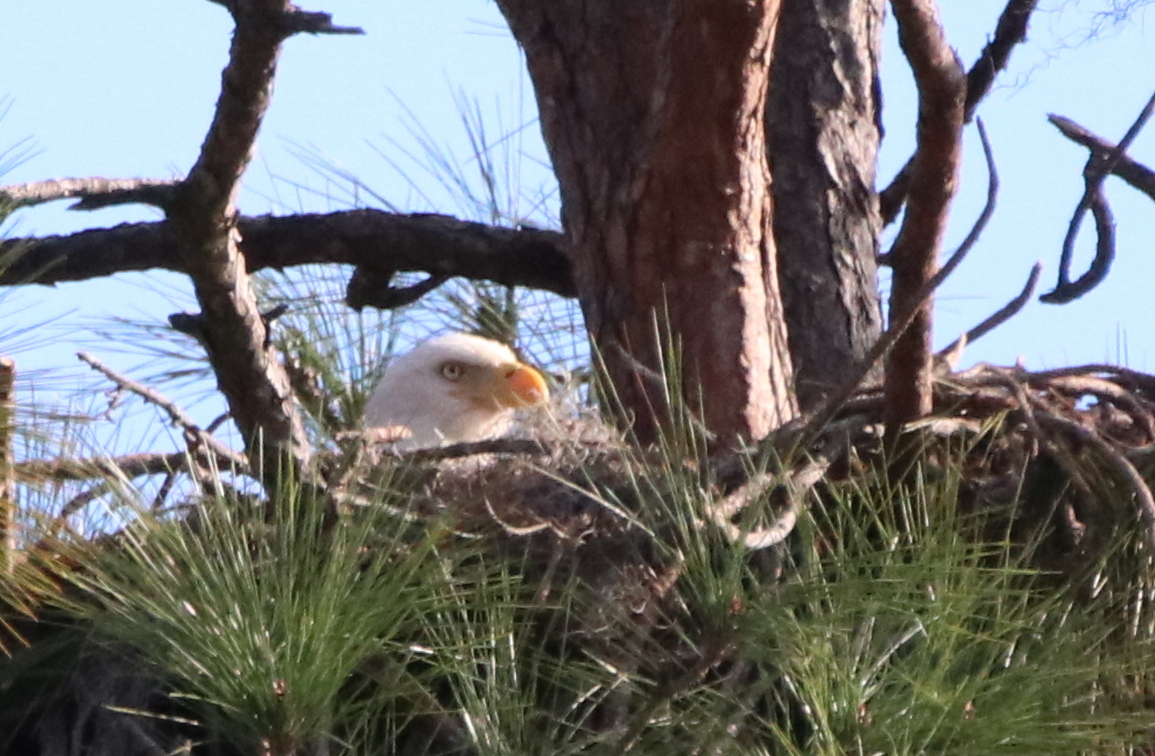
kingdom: Animalia
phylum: Chordata
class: Aves
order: Accipitriformes
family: Accipitridae
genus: Haliaeetus
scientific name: Haliaeetus leucocephalus
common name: Bald eagle
